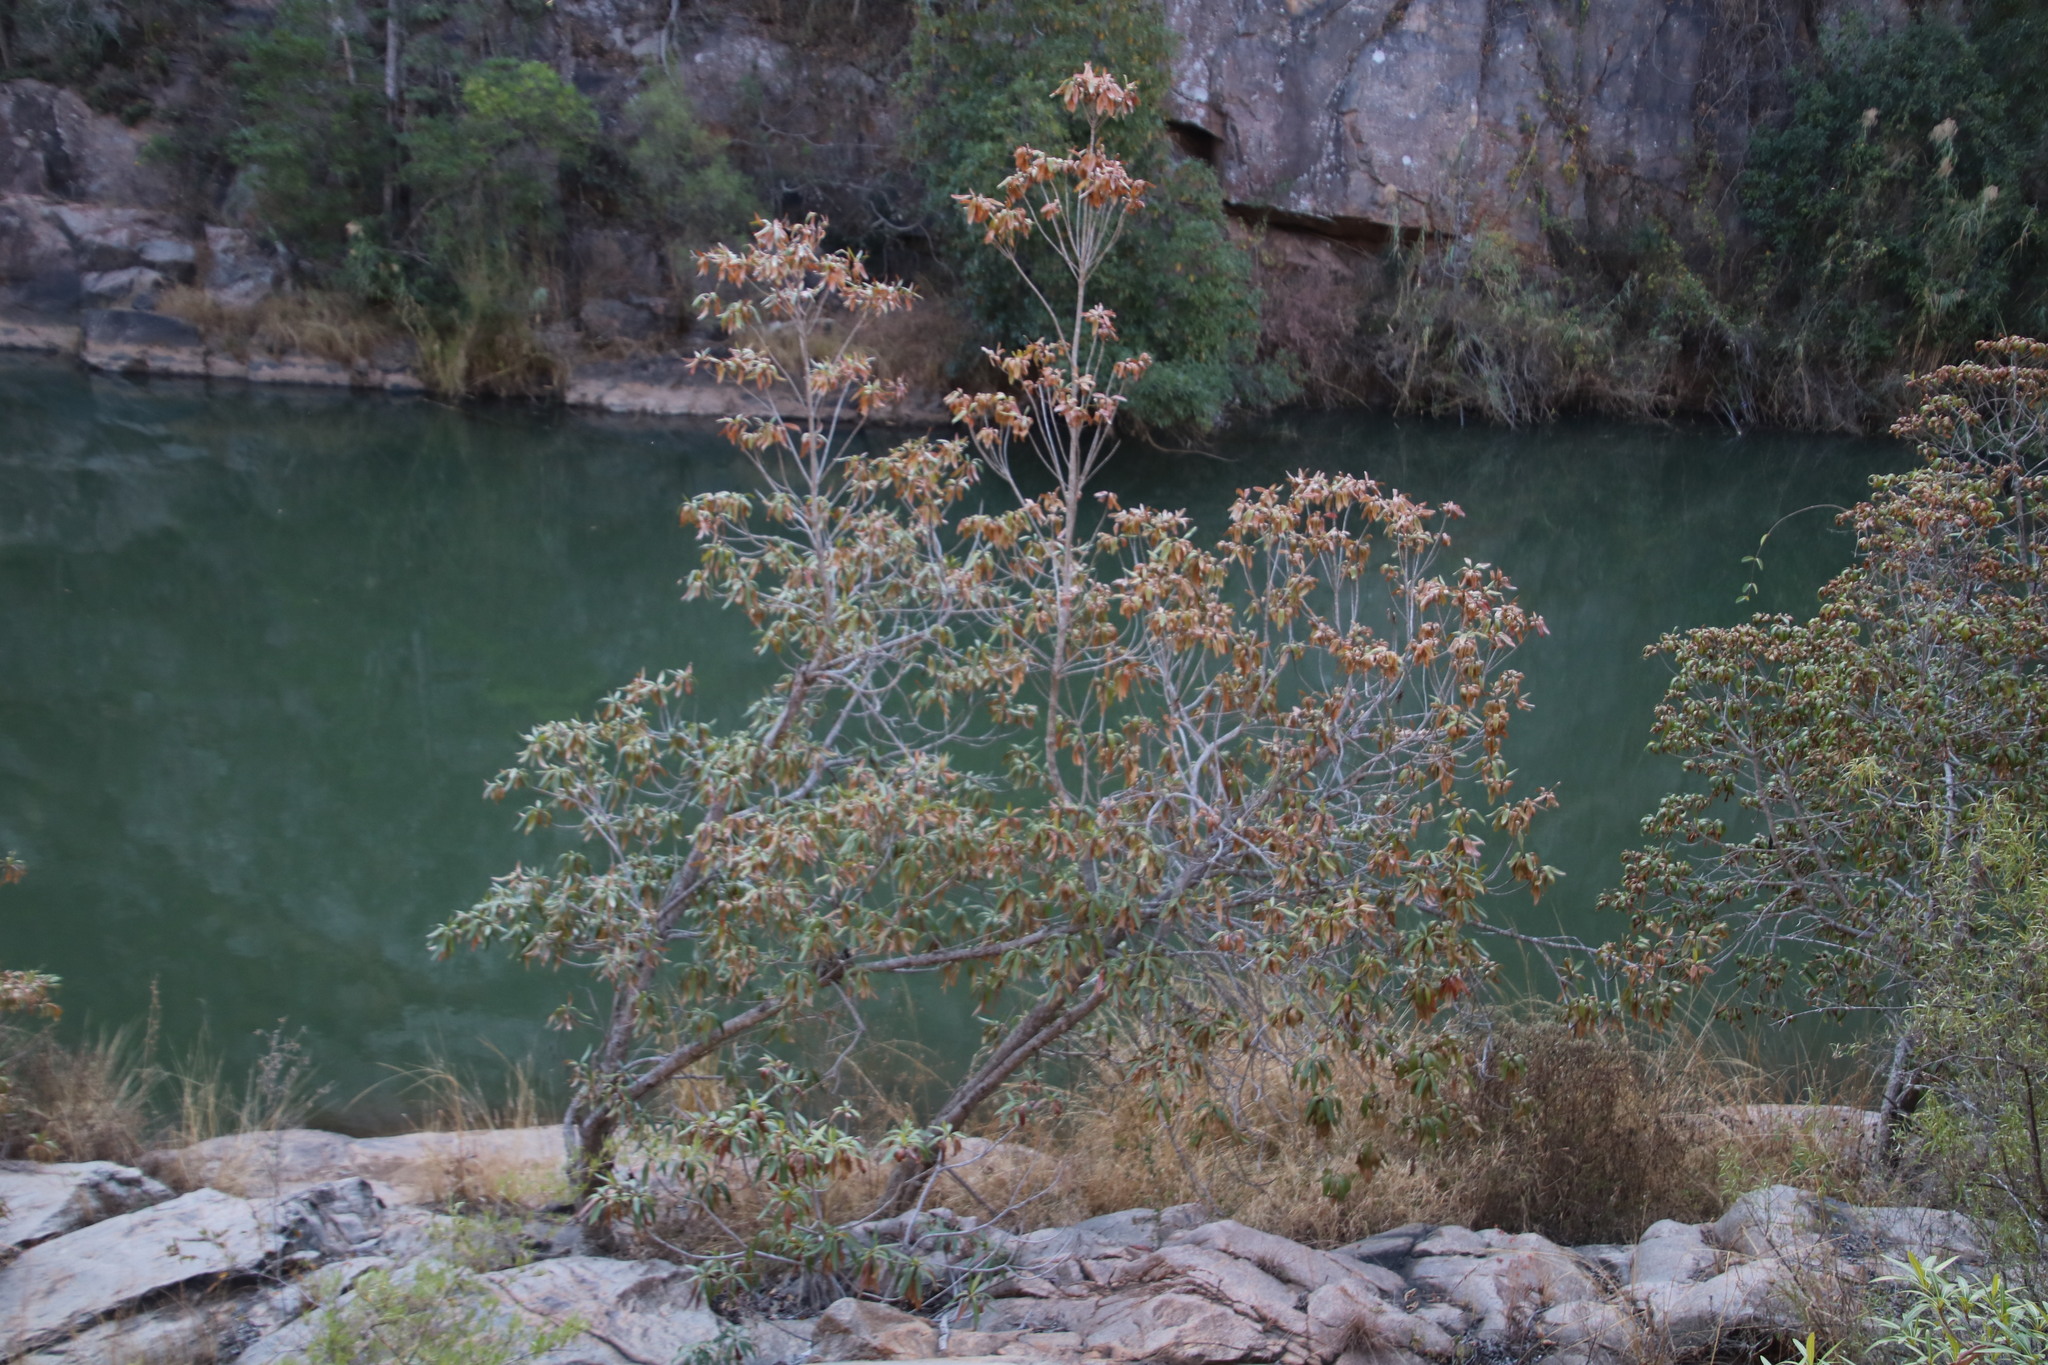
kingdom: Plantae
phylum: Tracheophyta
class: Magnoliopsida
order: Gentianales
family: Rubiaceae
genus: Breonadia
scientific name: Breonadia salicina
